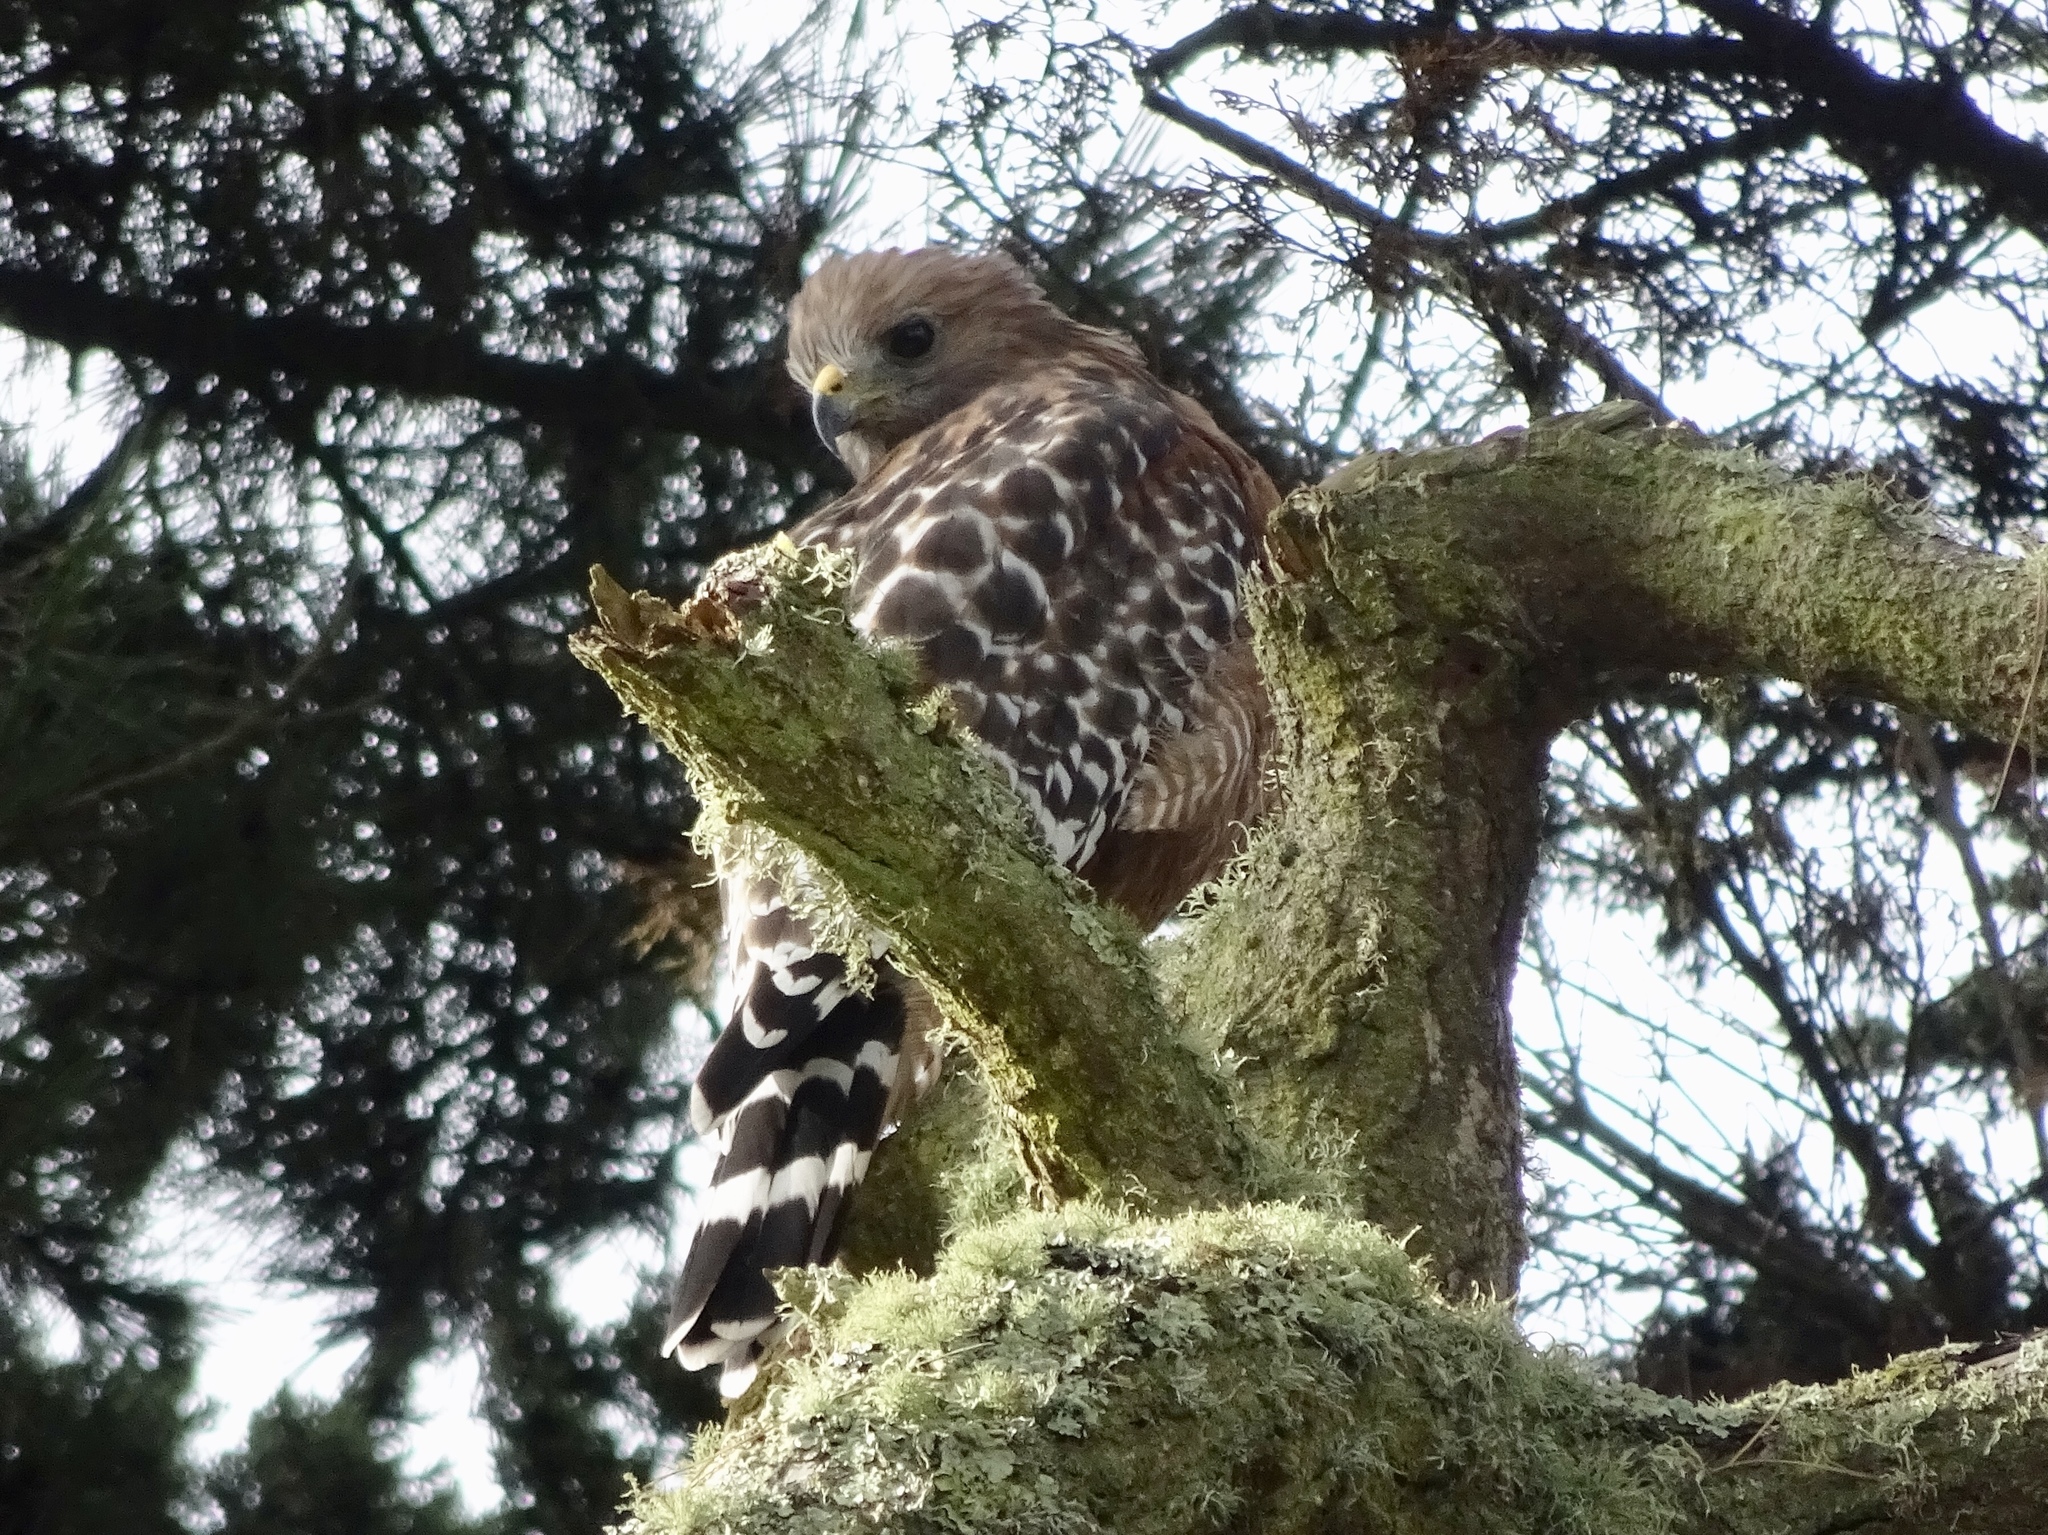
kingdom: Animalia
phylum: Chordata
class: Aves
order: Accipitriformes
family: Accipitridae
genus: Buteo
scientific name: Buteo lineatus
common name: Red-shouldered hawk
